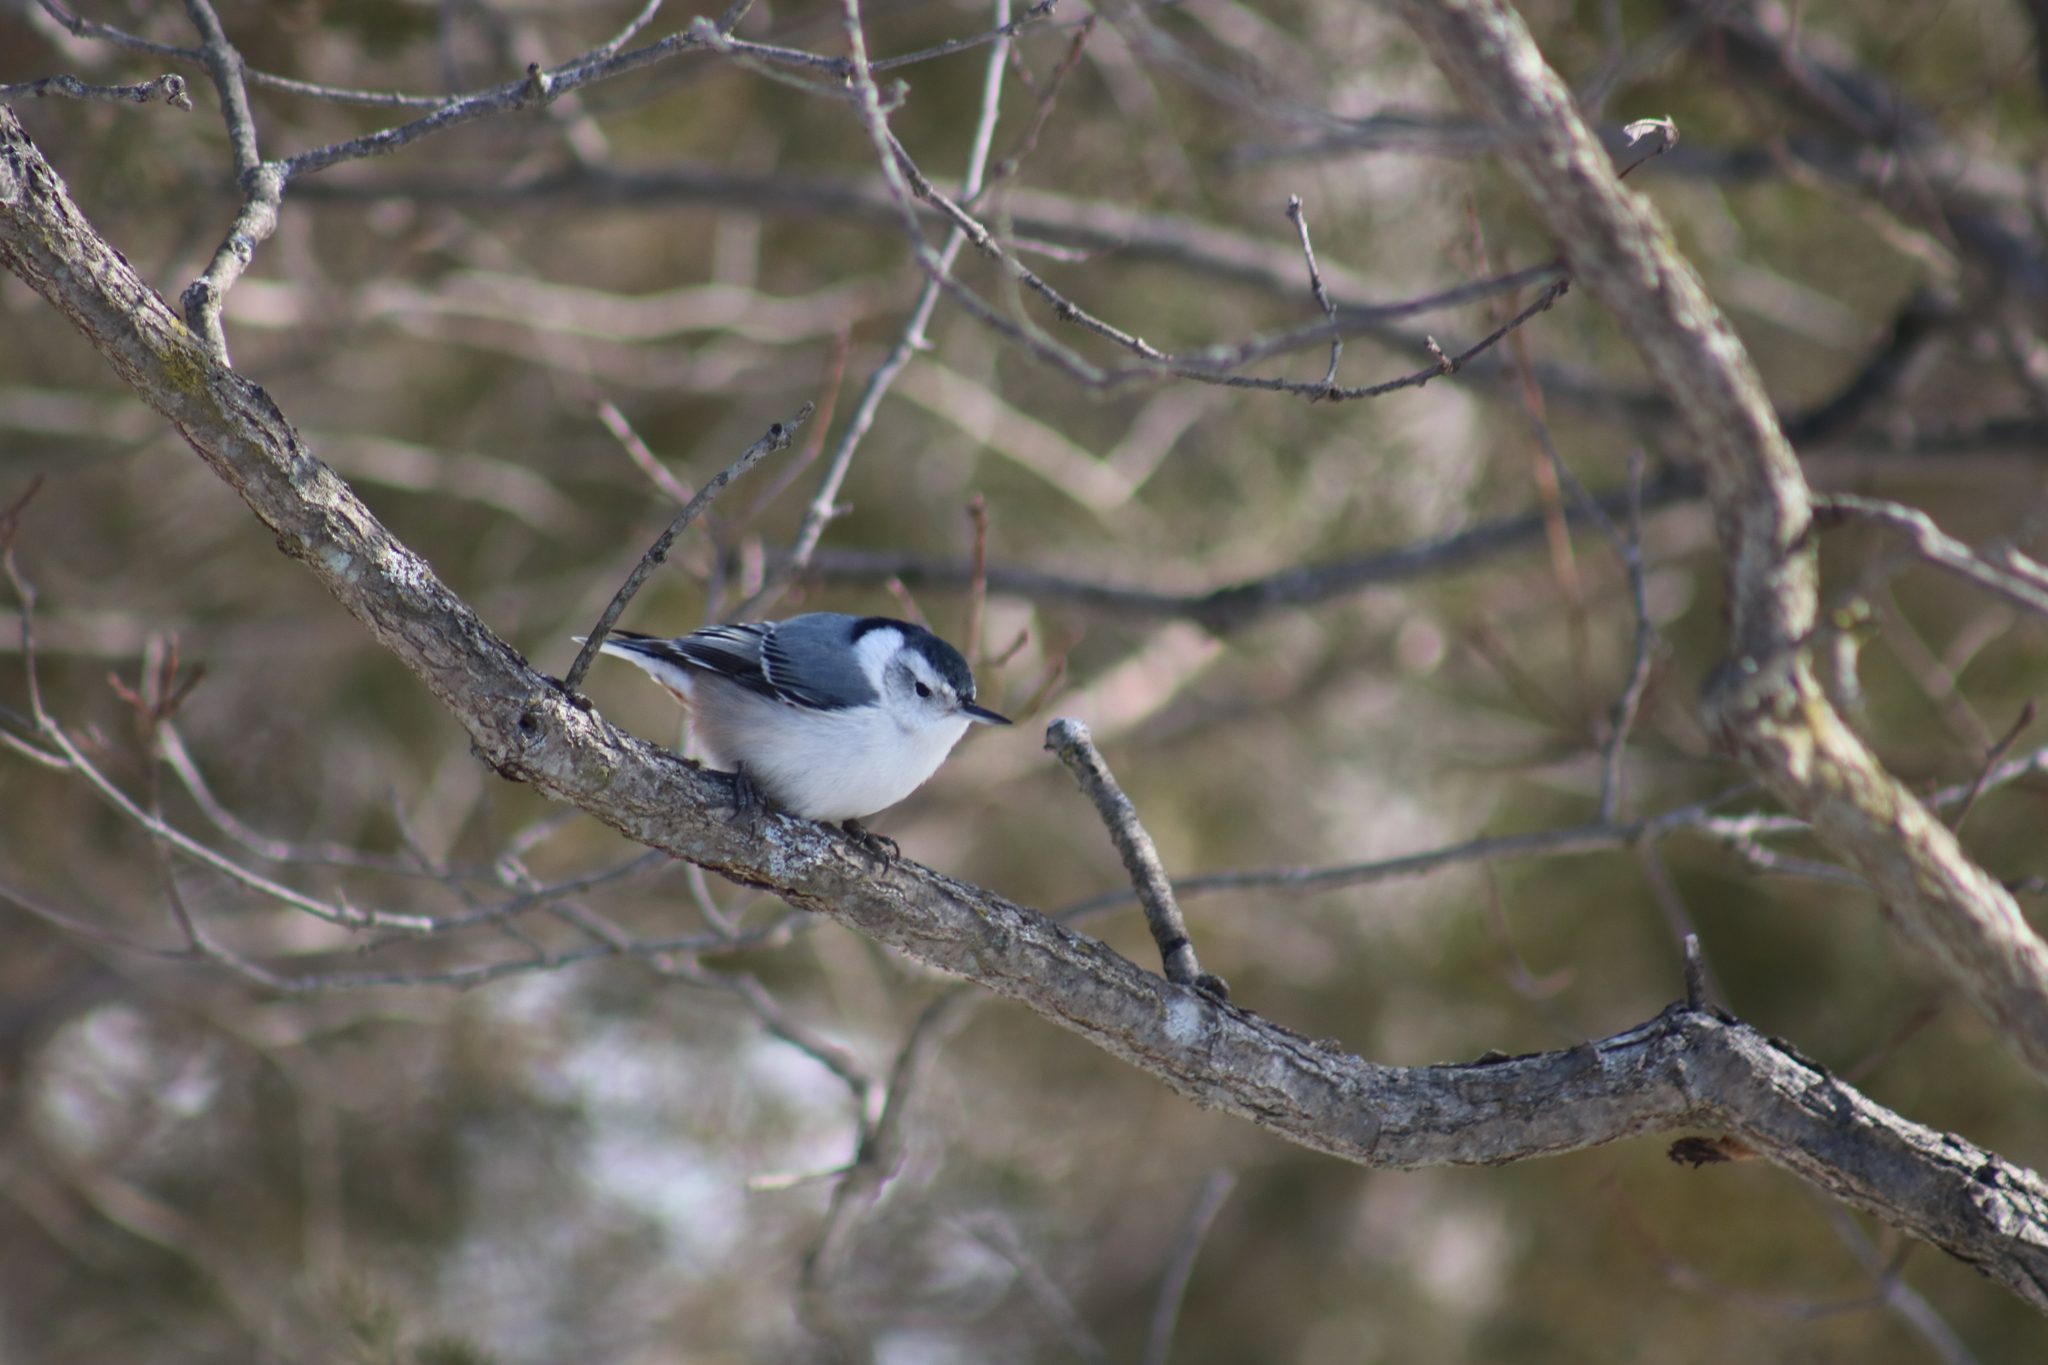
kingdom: Animalia
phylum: Chordata
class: Aves
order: Passeriformes
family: Sittidae
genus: Sitta
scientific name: Sitta carolinensis
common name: White-breasted nuthatch
